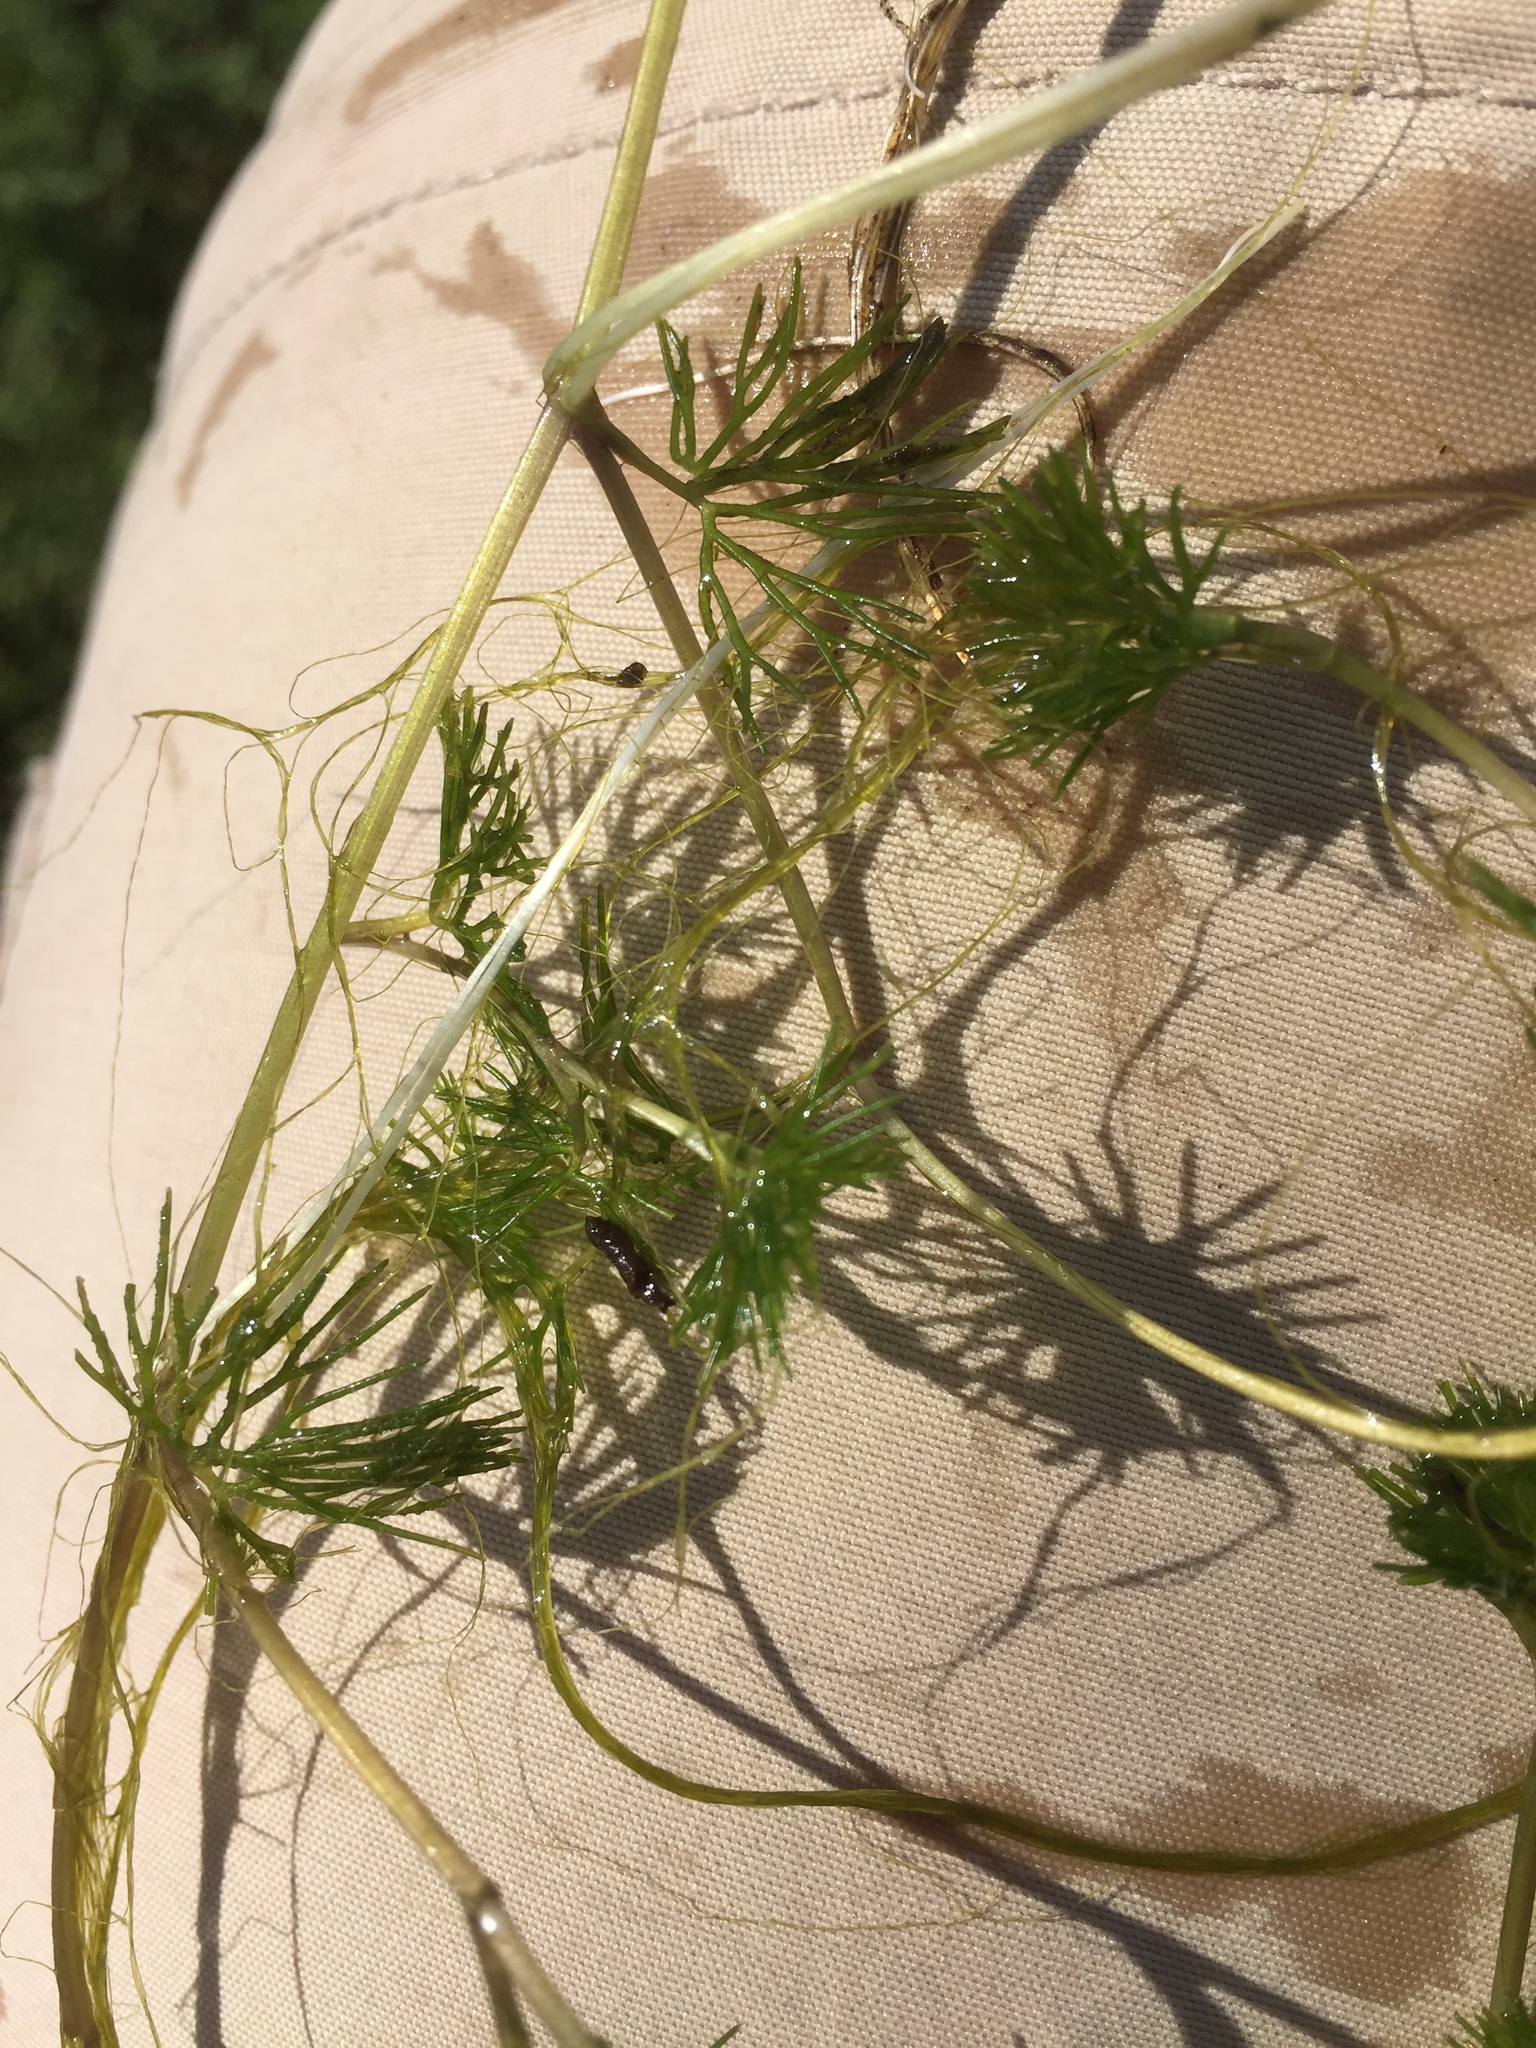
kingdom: Plantae
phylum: Tracheophyta
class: Magnoliopsida
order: Ranunculales
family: Ranunculaceae
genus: Ranunculus
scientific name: Ranunculus circinatus
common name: Fan-leaved water-crowfoot
